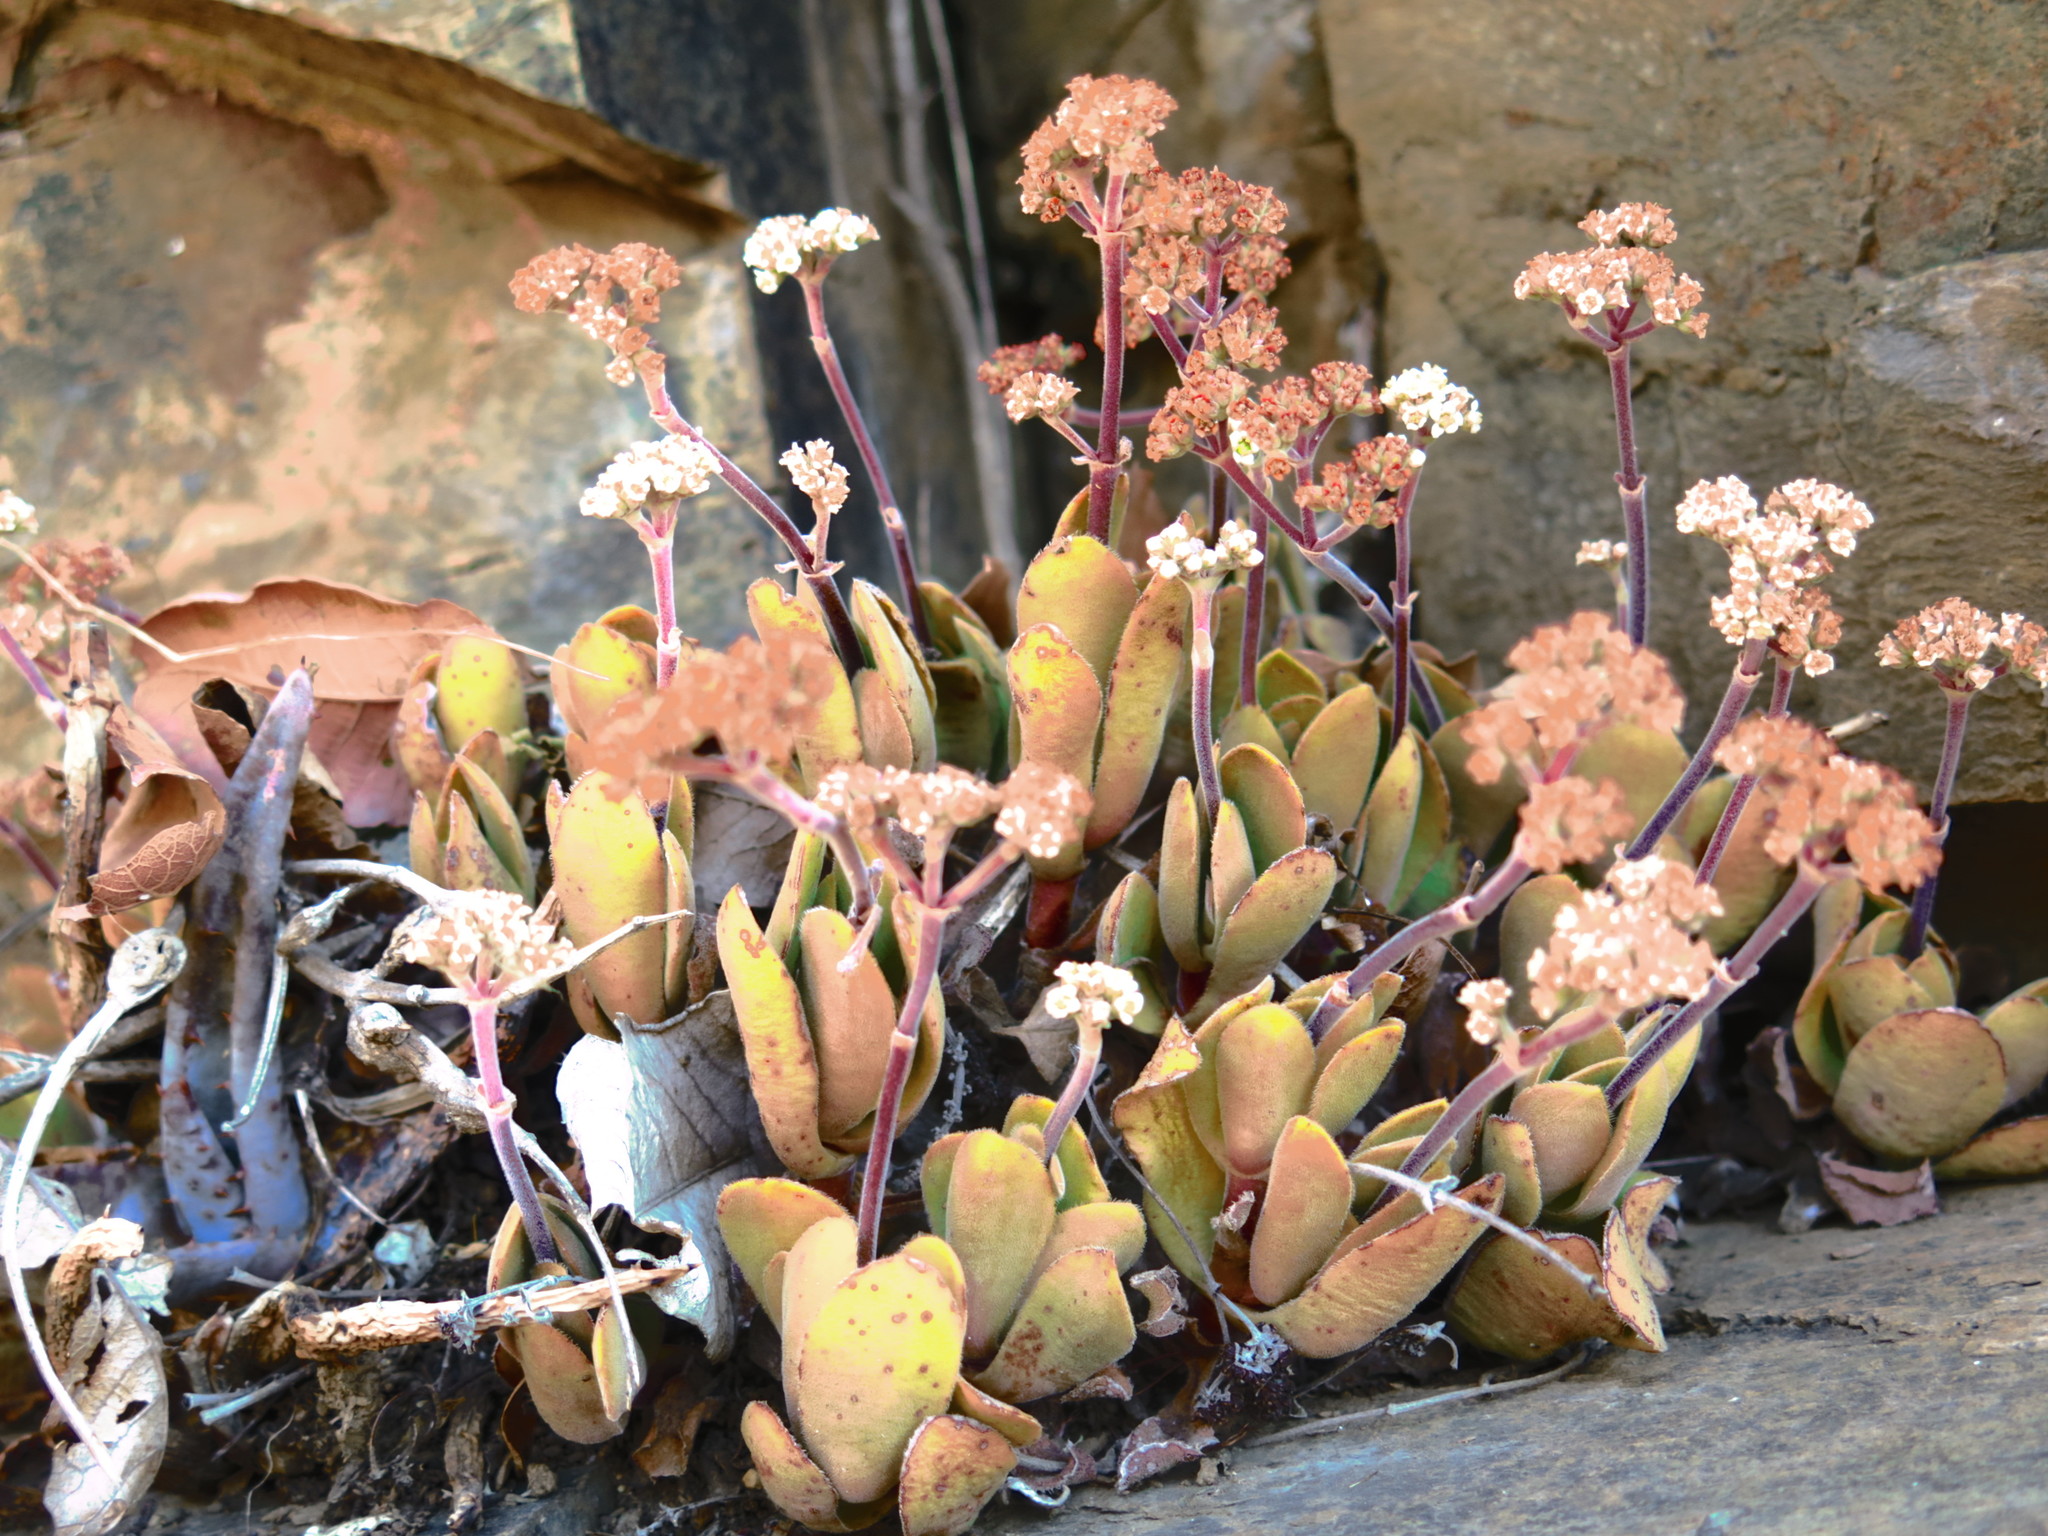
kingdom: Plantae
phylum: Tracheophyta
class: Magnoliopsida
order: Saxifragales
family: Crassulaceae
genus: Crassula
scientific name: Crassula globularioides
